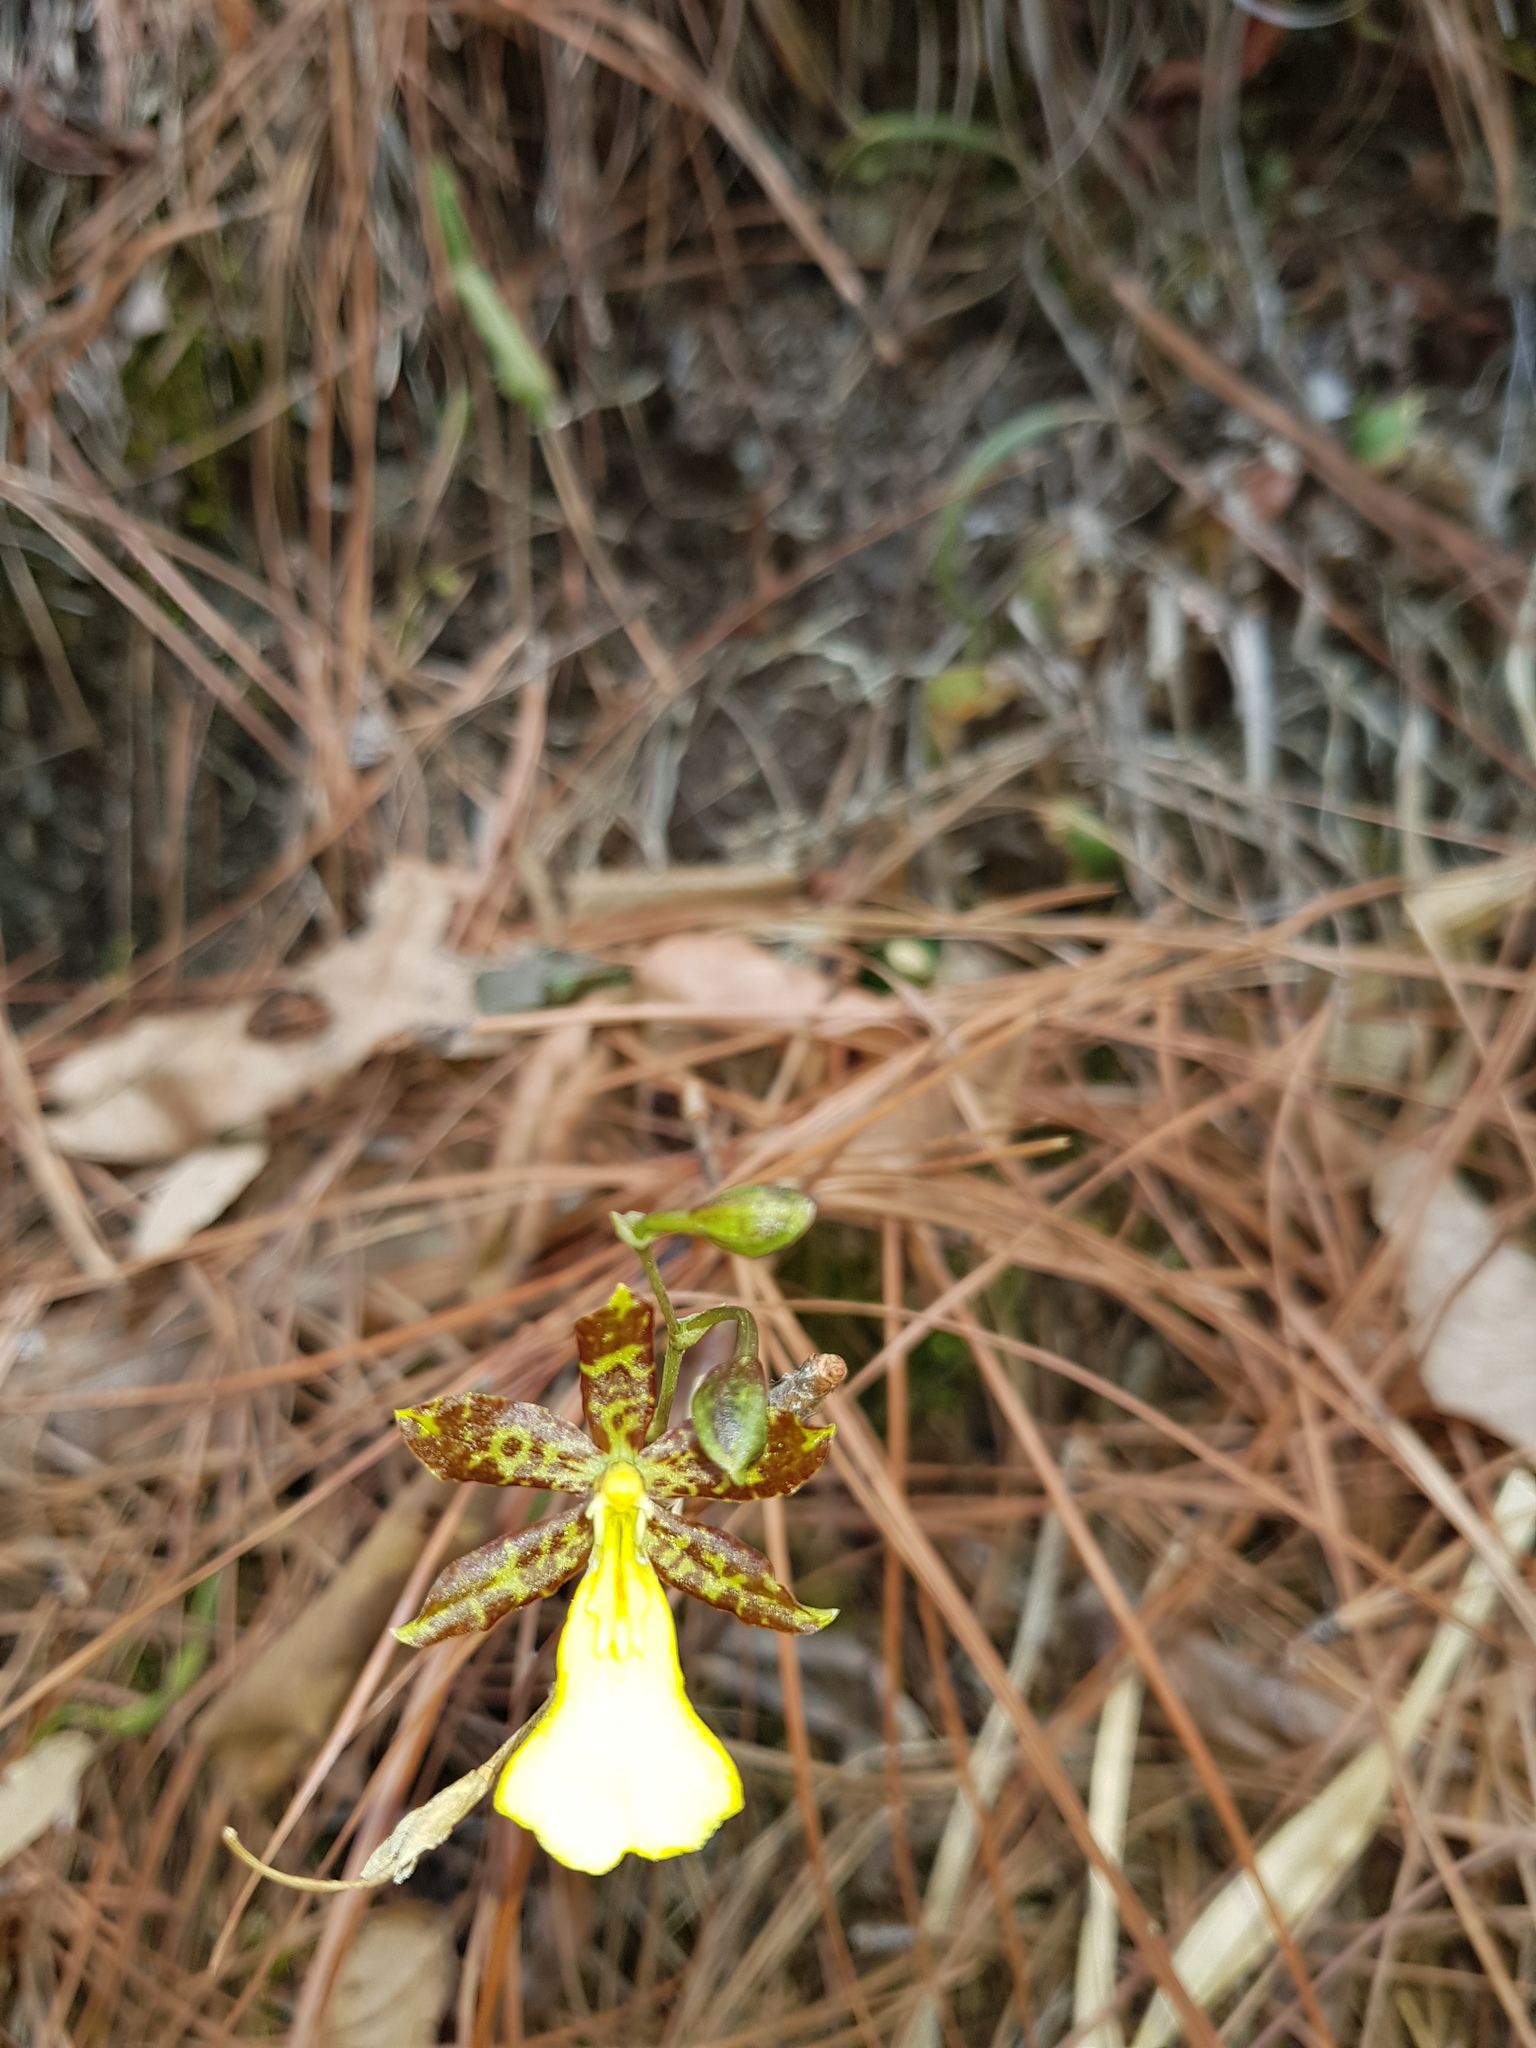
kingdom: Plantae
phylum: Tracheophyta
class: Liliopsida
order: Asparagales
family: Orchidaceae
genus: Oncidium
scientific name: Oncidium graminifolium
